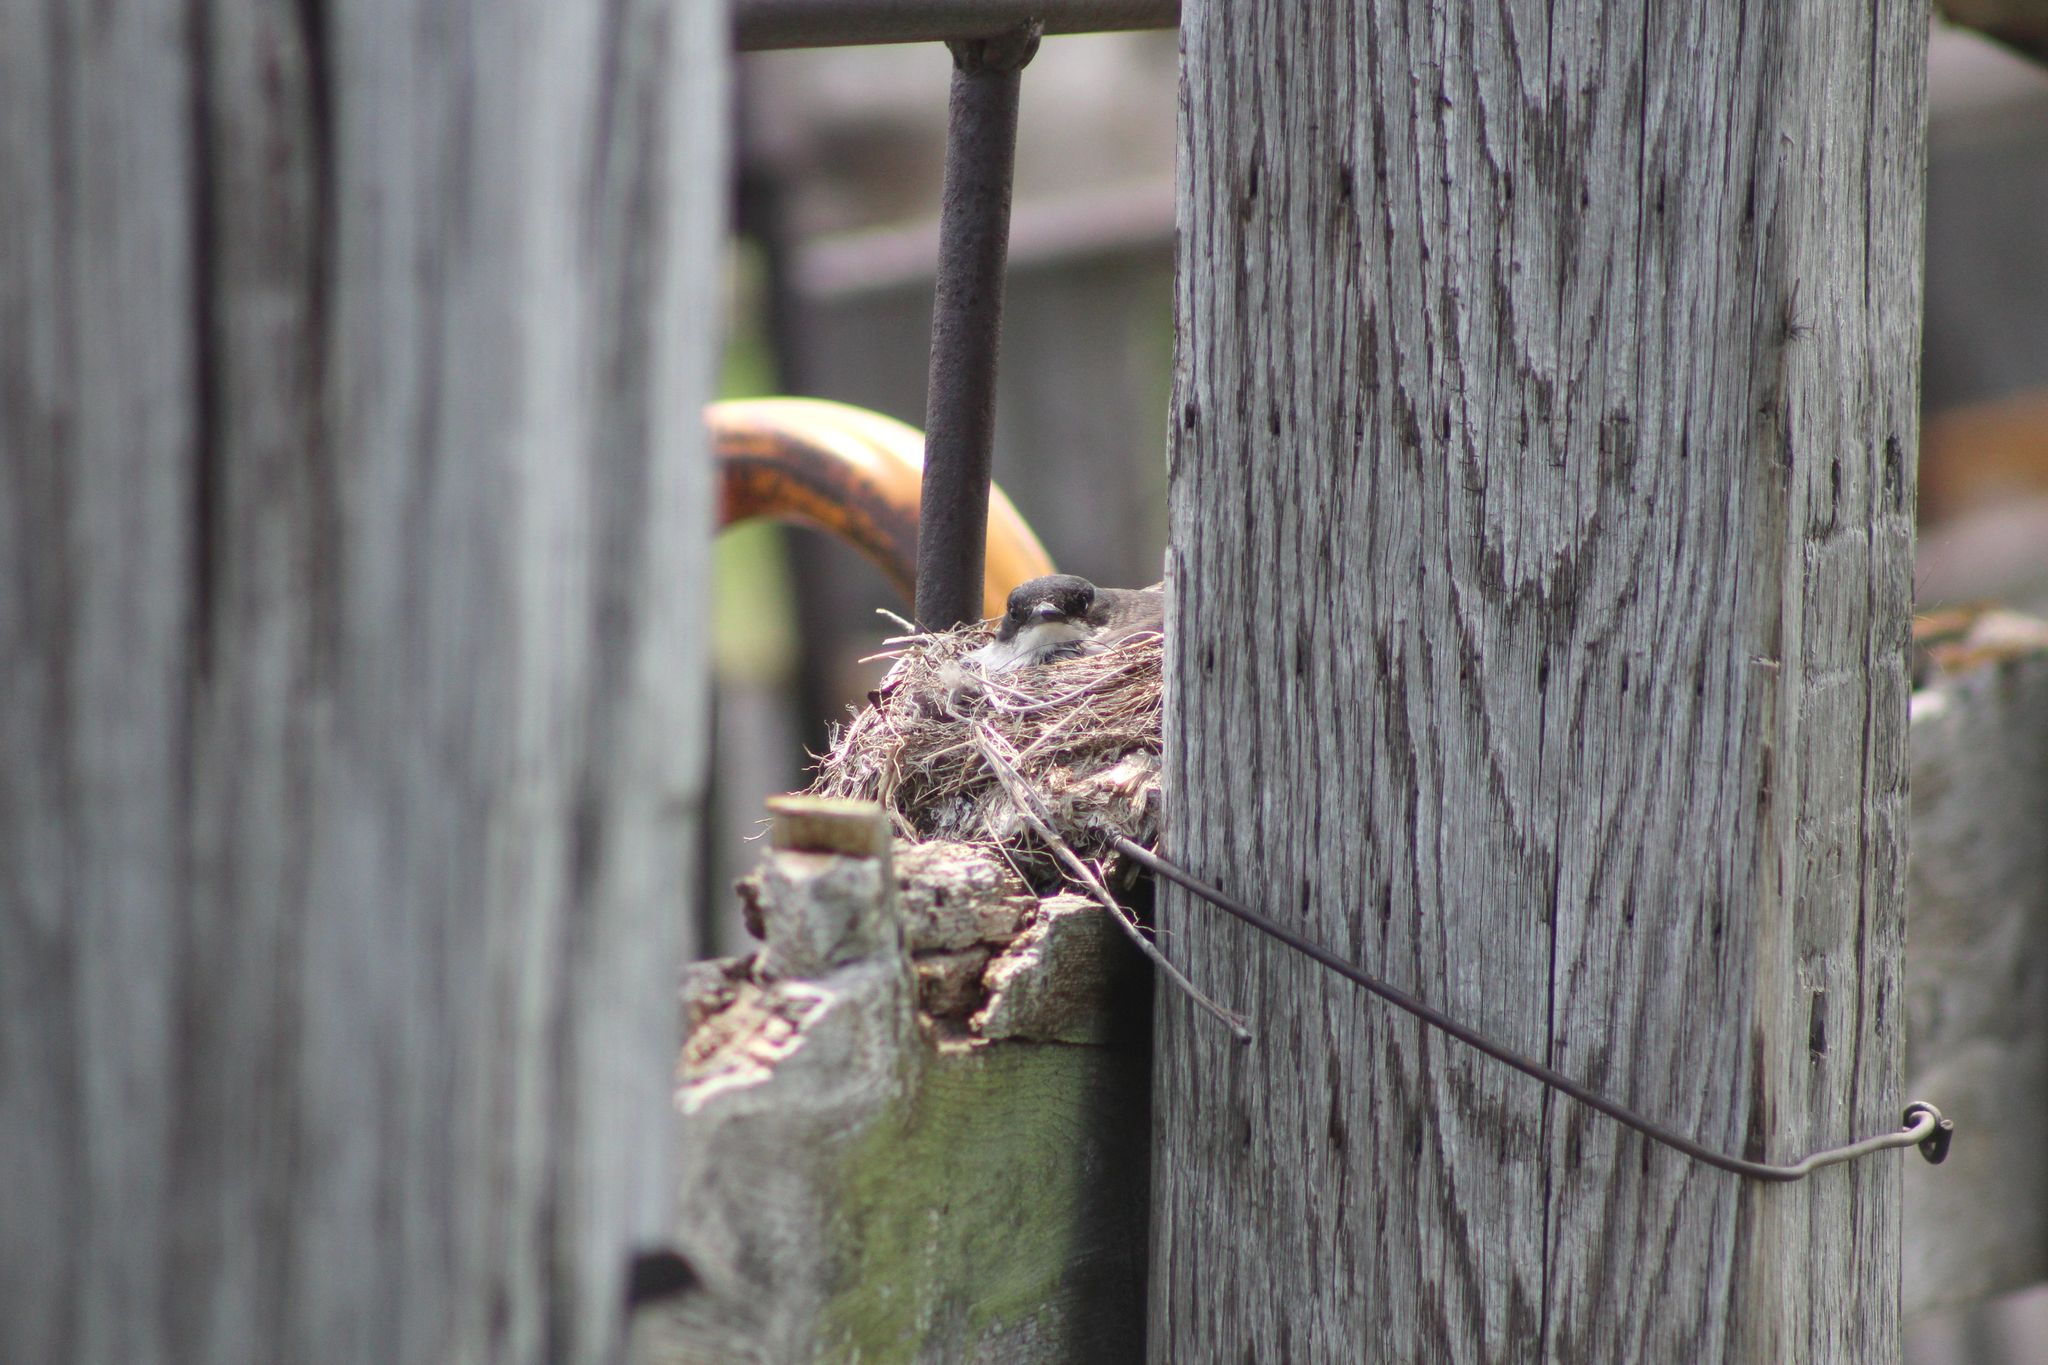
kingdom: Animalia
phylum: Chordata
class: Aves
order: Passeriformes
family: Tyrannidae
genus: Tyrannus
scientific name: Tyrannus tyrannus
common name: Eastern kingbird
